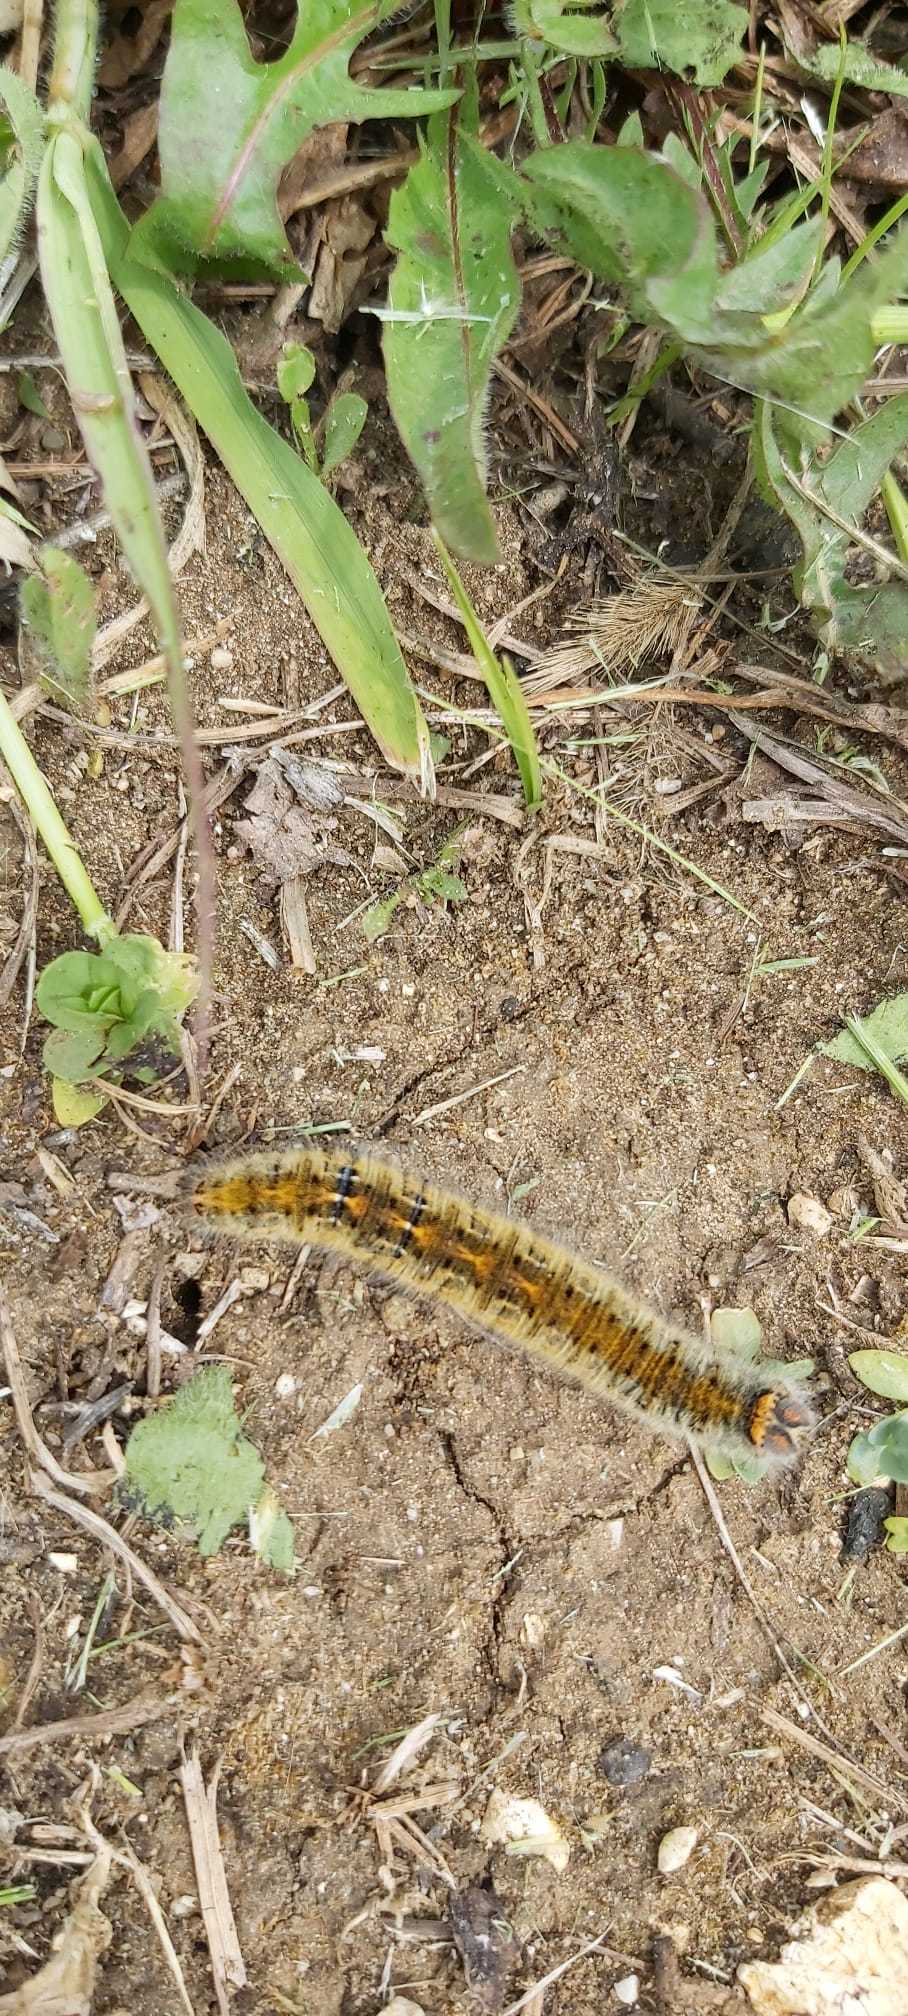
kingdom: Animalia
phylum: Arthropoda
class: Insecta
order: Lepidoptera
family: Lasiocampidae
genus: Lasiocampa
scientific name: Lasiocampa trifolii
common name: Grass eggar
